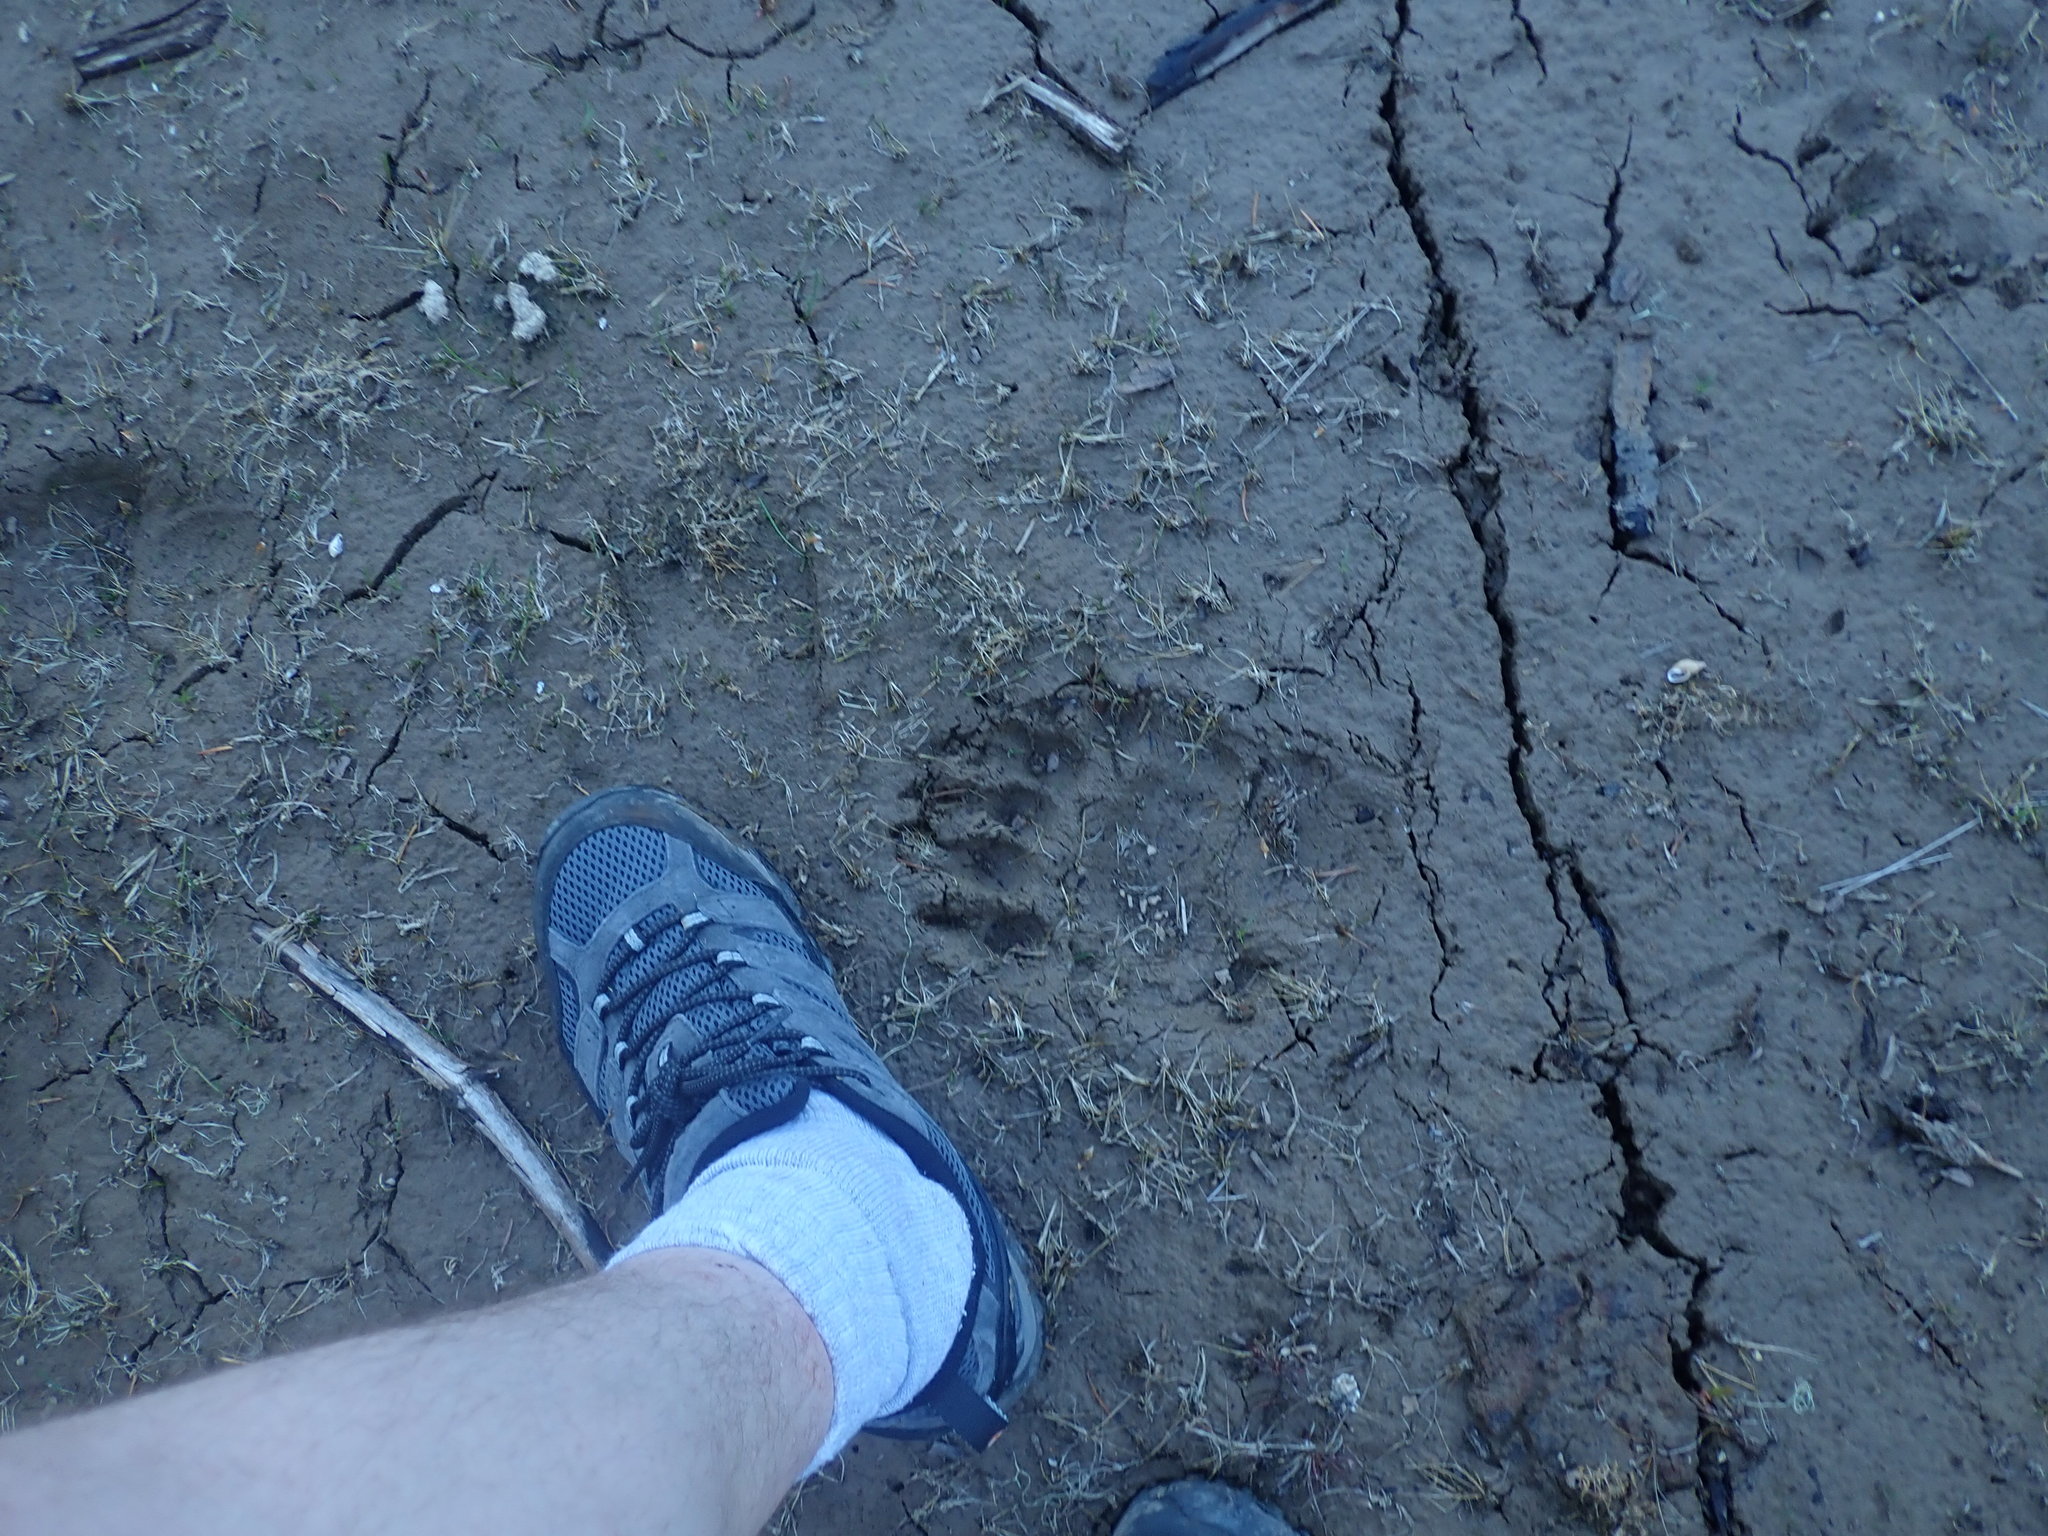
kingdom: Animalia
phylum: Chordata
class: Mammalia
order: Carnivora
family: Ursidae
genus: Ursus
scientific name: Ursus americanus
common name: American black bear
